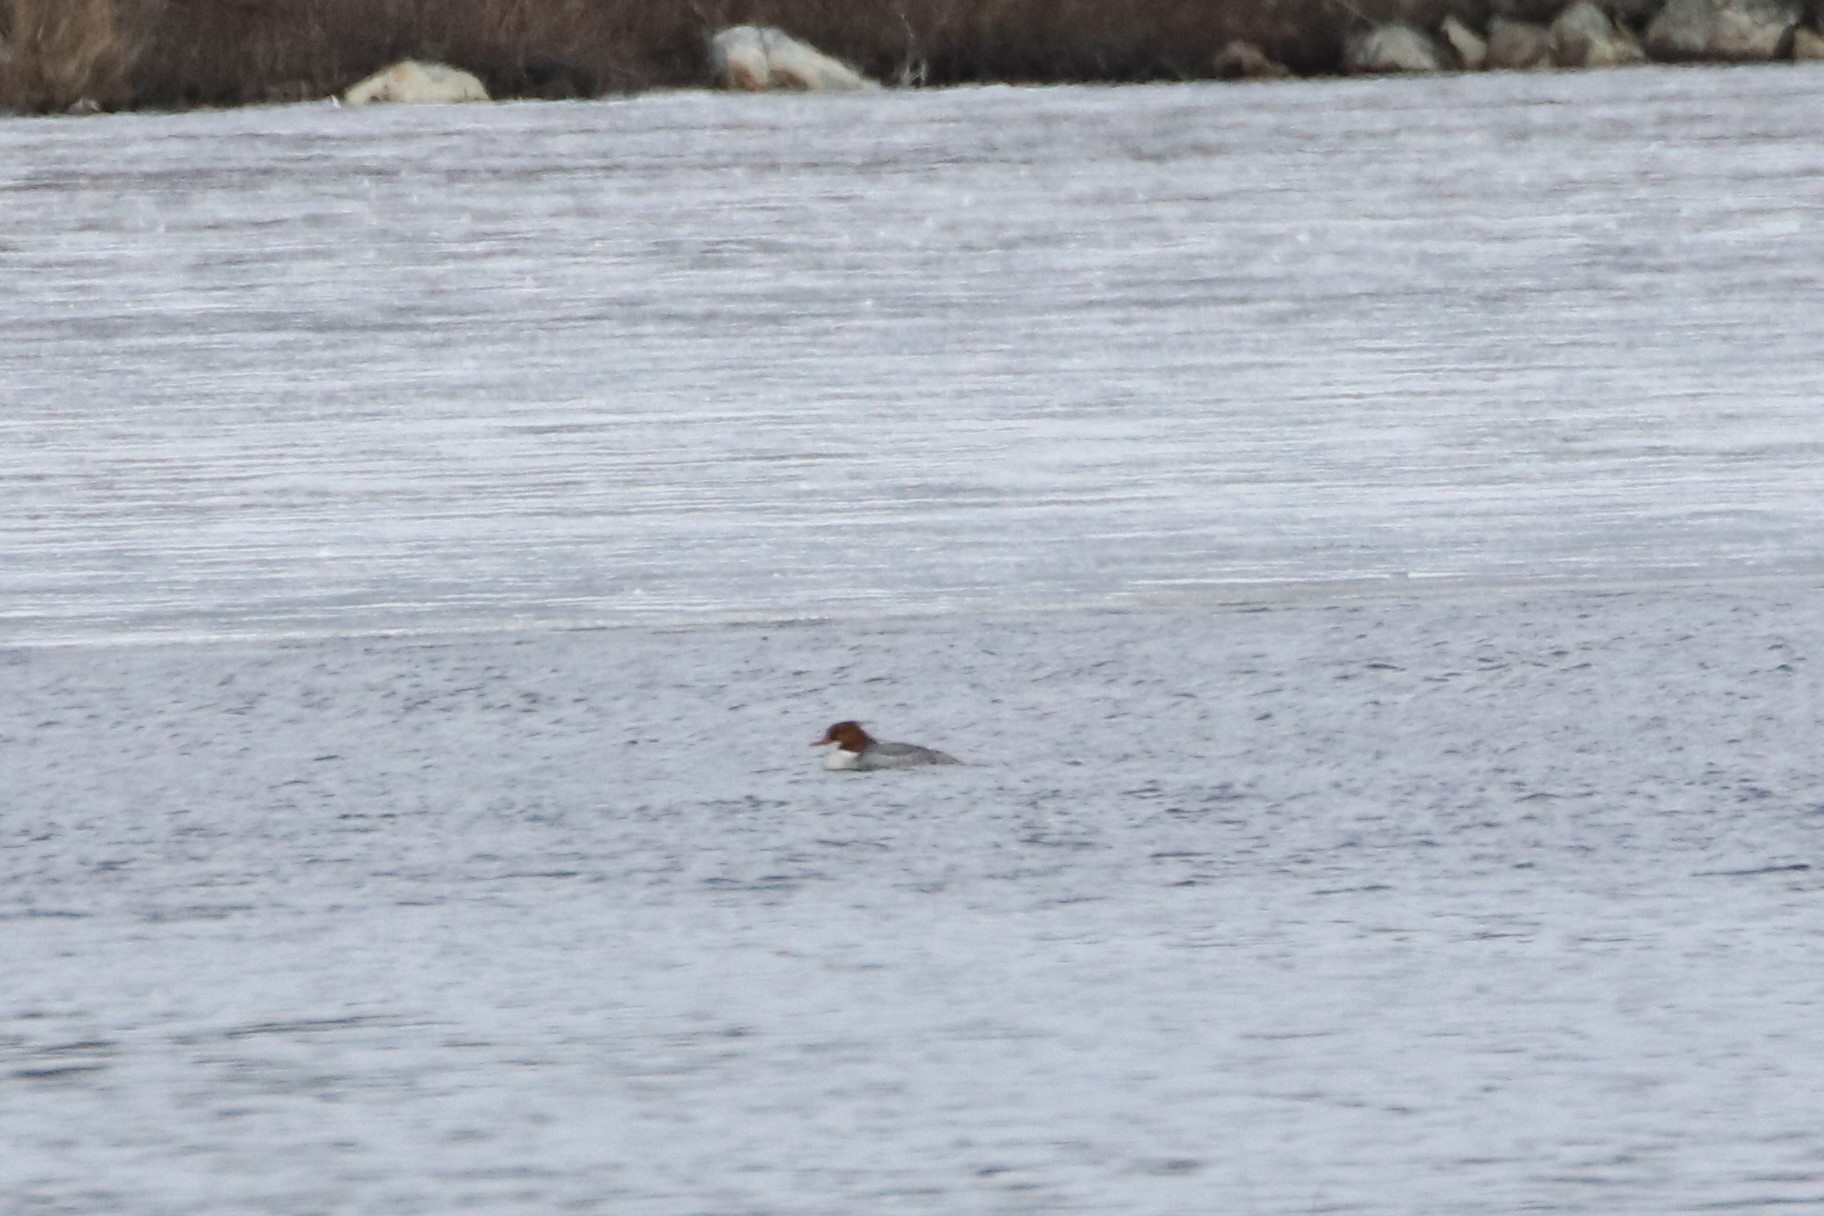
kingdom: Animalia
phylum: Chordata
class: Aves
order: Anseriformes
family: Anatidae
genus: Mergus
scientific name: Mergus merganser
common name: Common merganser
